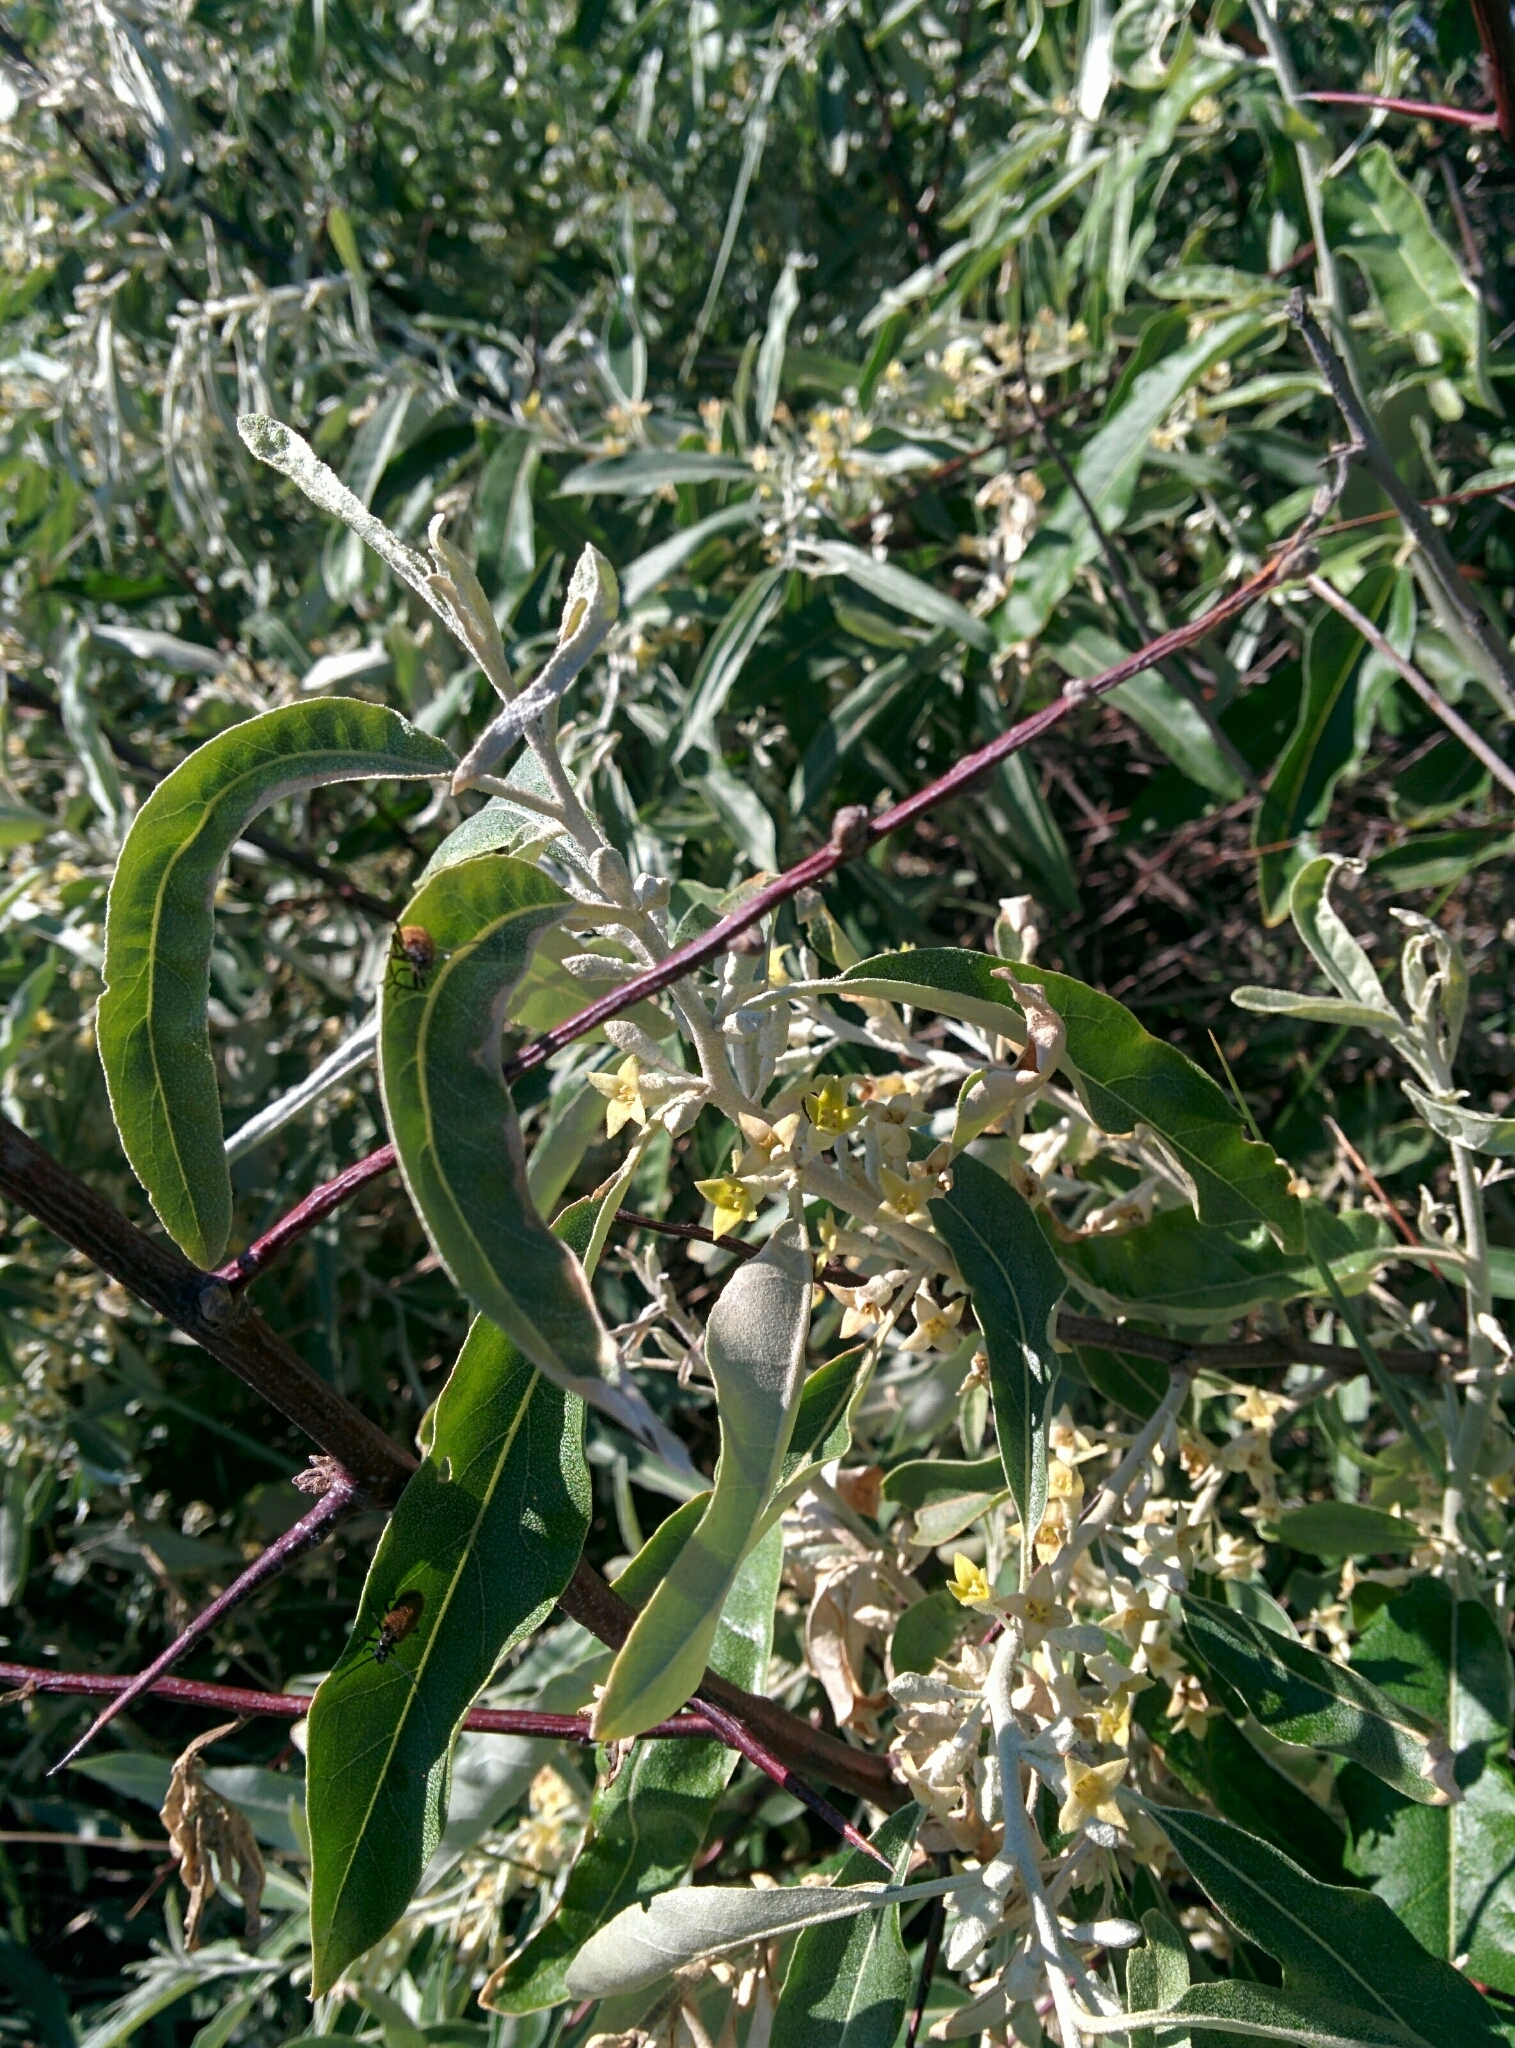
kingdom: Plantae
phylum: Tracheophyta
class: Magnoliopsida
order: Rosales
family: Elaeagnaceae
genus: Elaeagnus
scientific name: Elaeagnus angustifolia
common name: Russian olive
